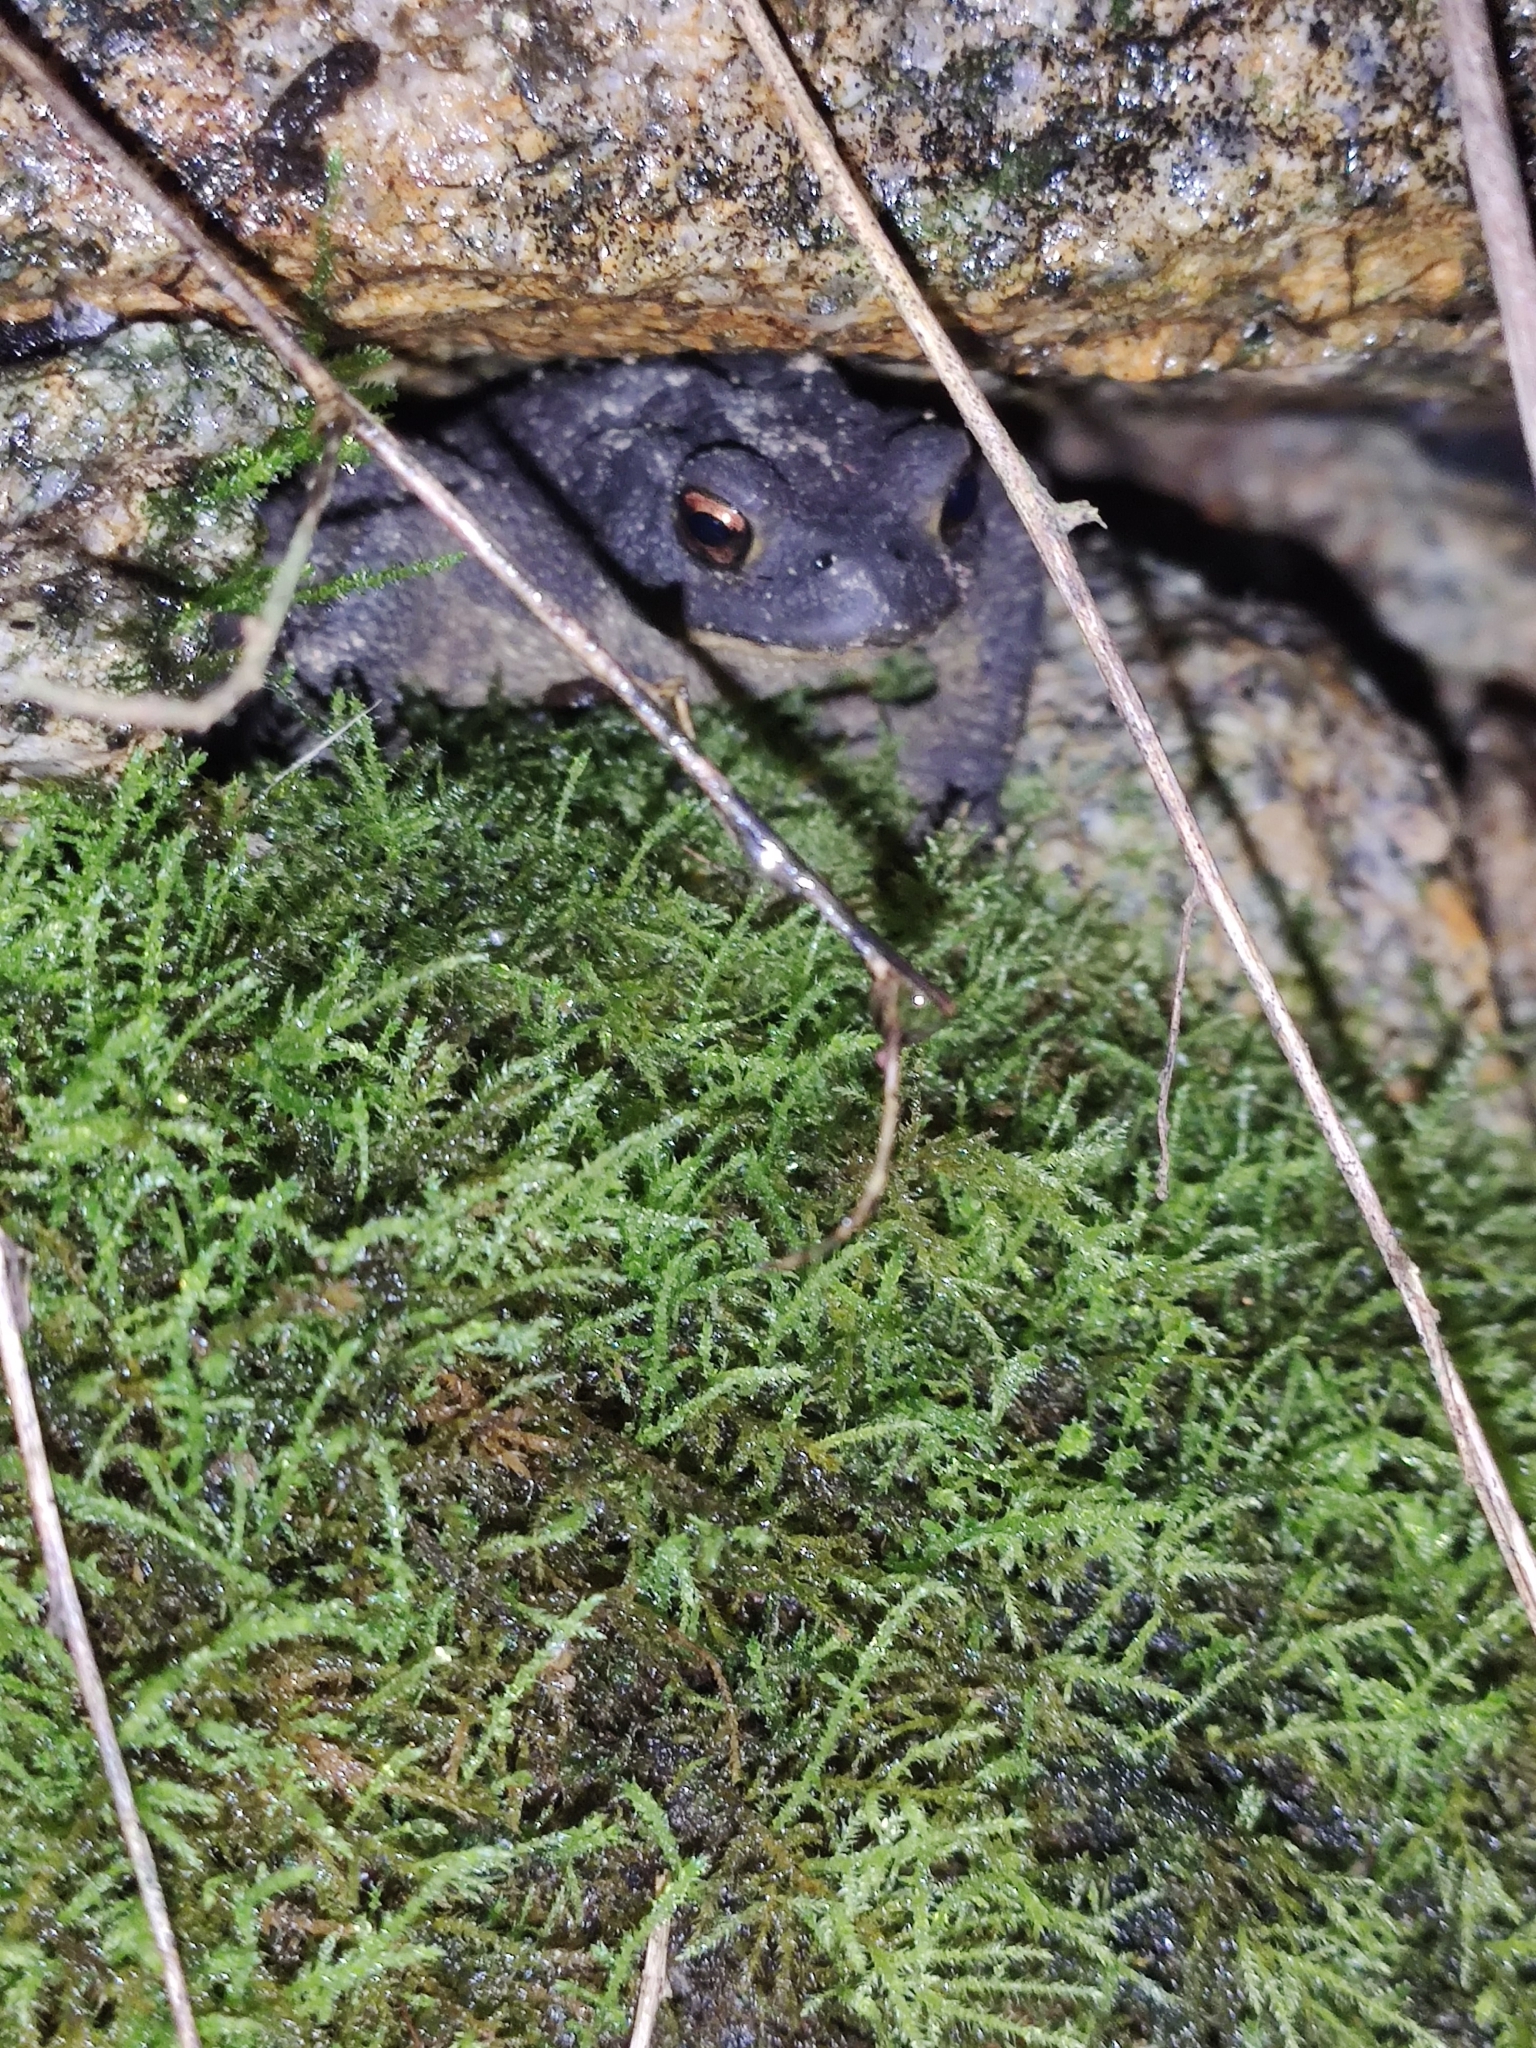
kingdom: Animalia
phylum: Chordata
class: Amphibia
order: Anura
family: Bufonidae
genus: Bufo
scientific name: Bufo spinosus
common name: Western common toad
